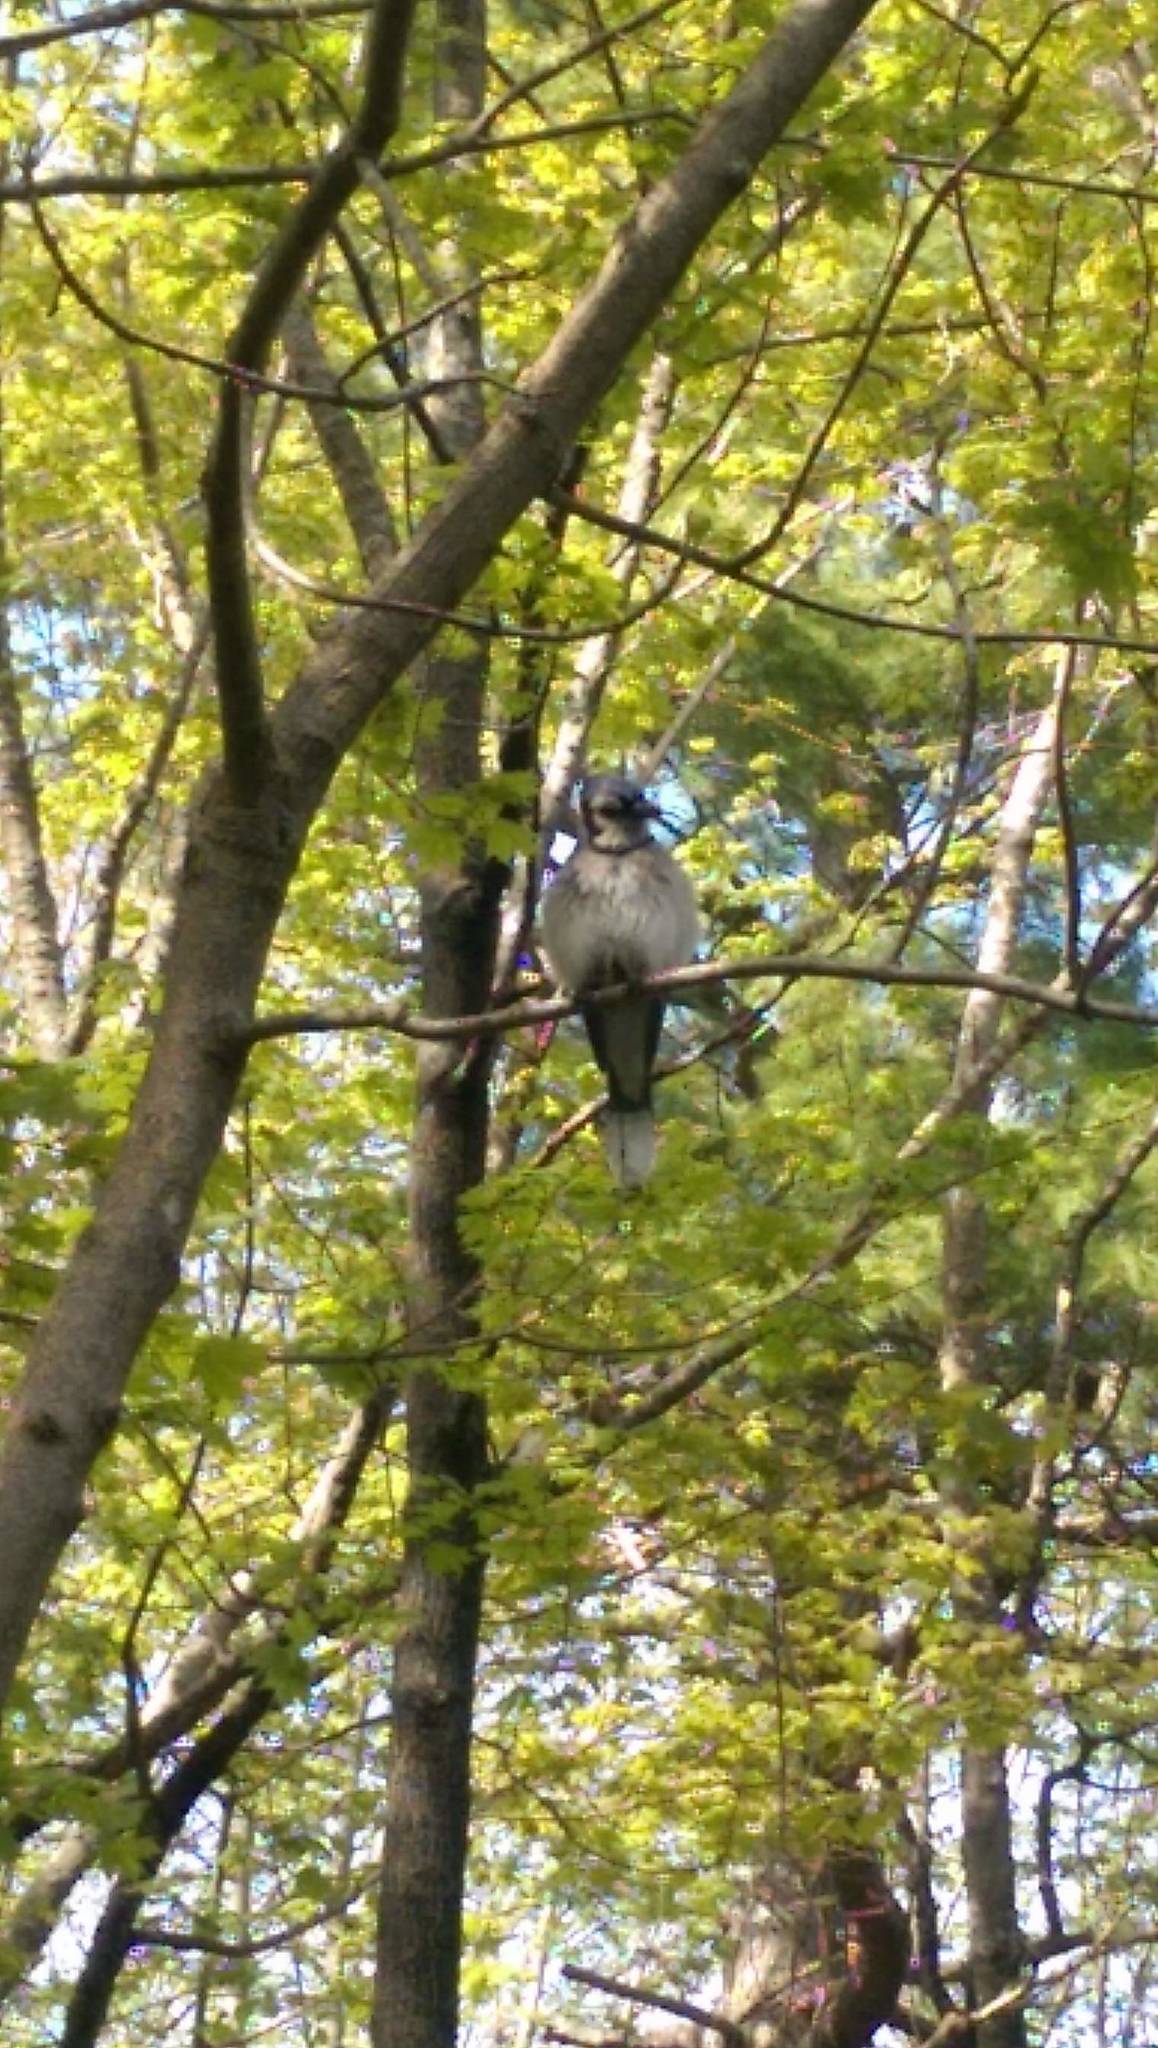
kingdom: Animalia
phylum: Chordata
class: Aves
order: Passeriformes
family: Corvidae
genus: Cyanocitta
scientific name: Cyanocitta cristata
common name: Blue jay
